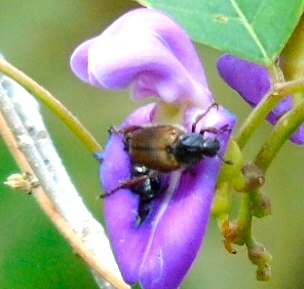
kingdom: Animalia
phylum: Arthropoda
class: Insecta
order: Coleoptera
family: Scarabaeidae
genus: Strigoderma
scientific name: Strigoderma
